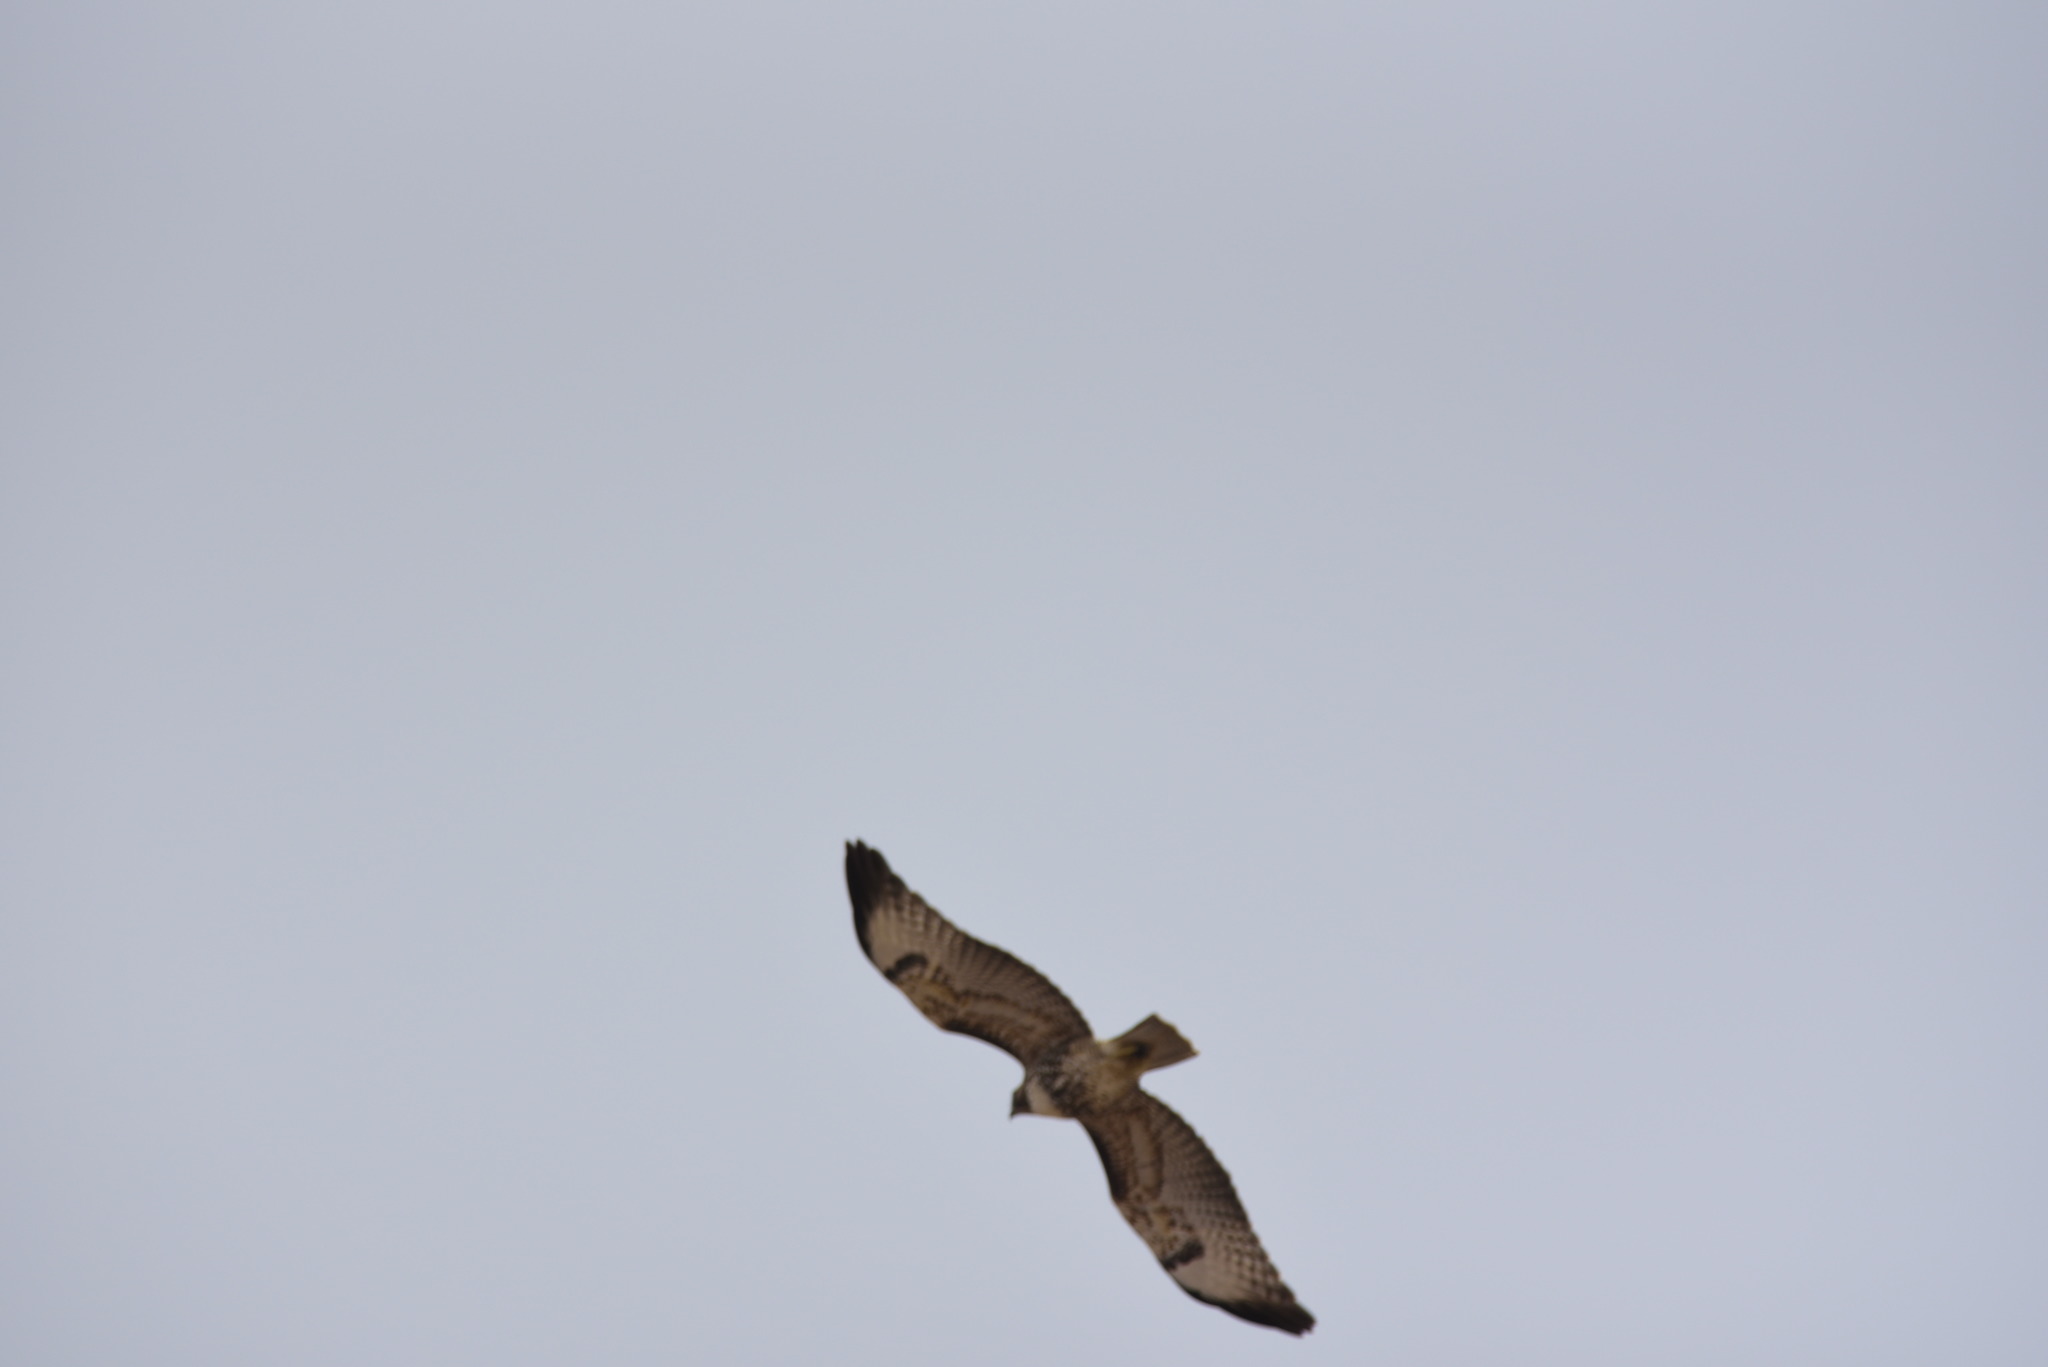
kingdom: Animalia
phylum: Chordata
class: Aves
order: Accipitriformes
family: Accipitridae
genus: Buteo
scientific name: Buteo jamaicensis
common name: Red-tailed hawk
